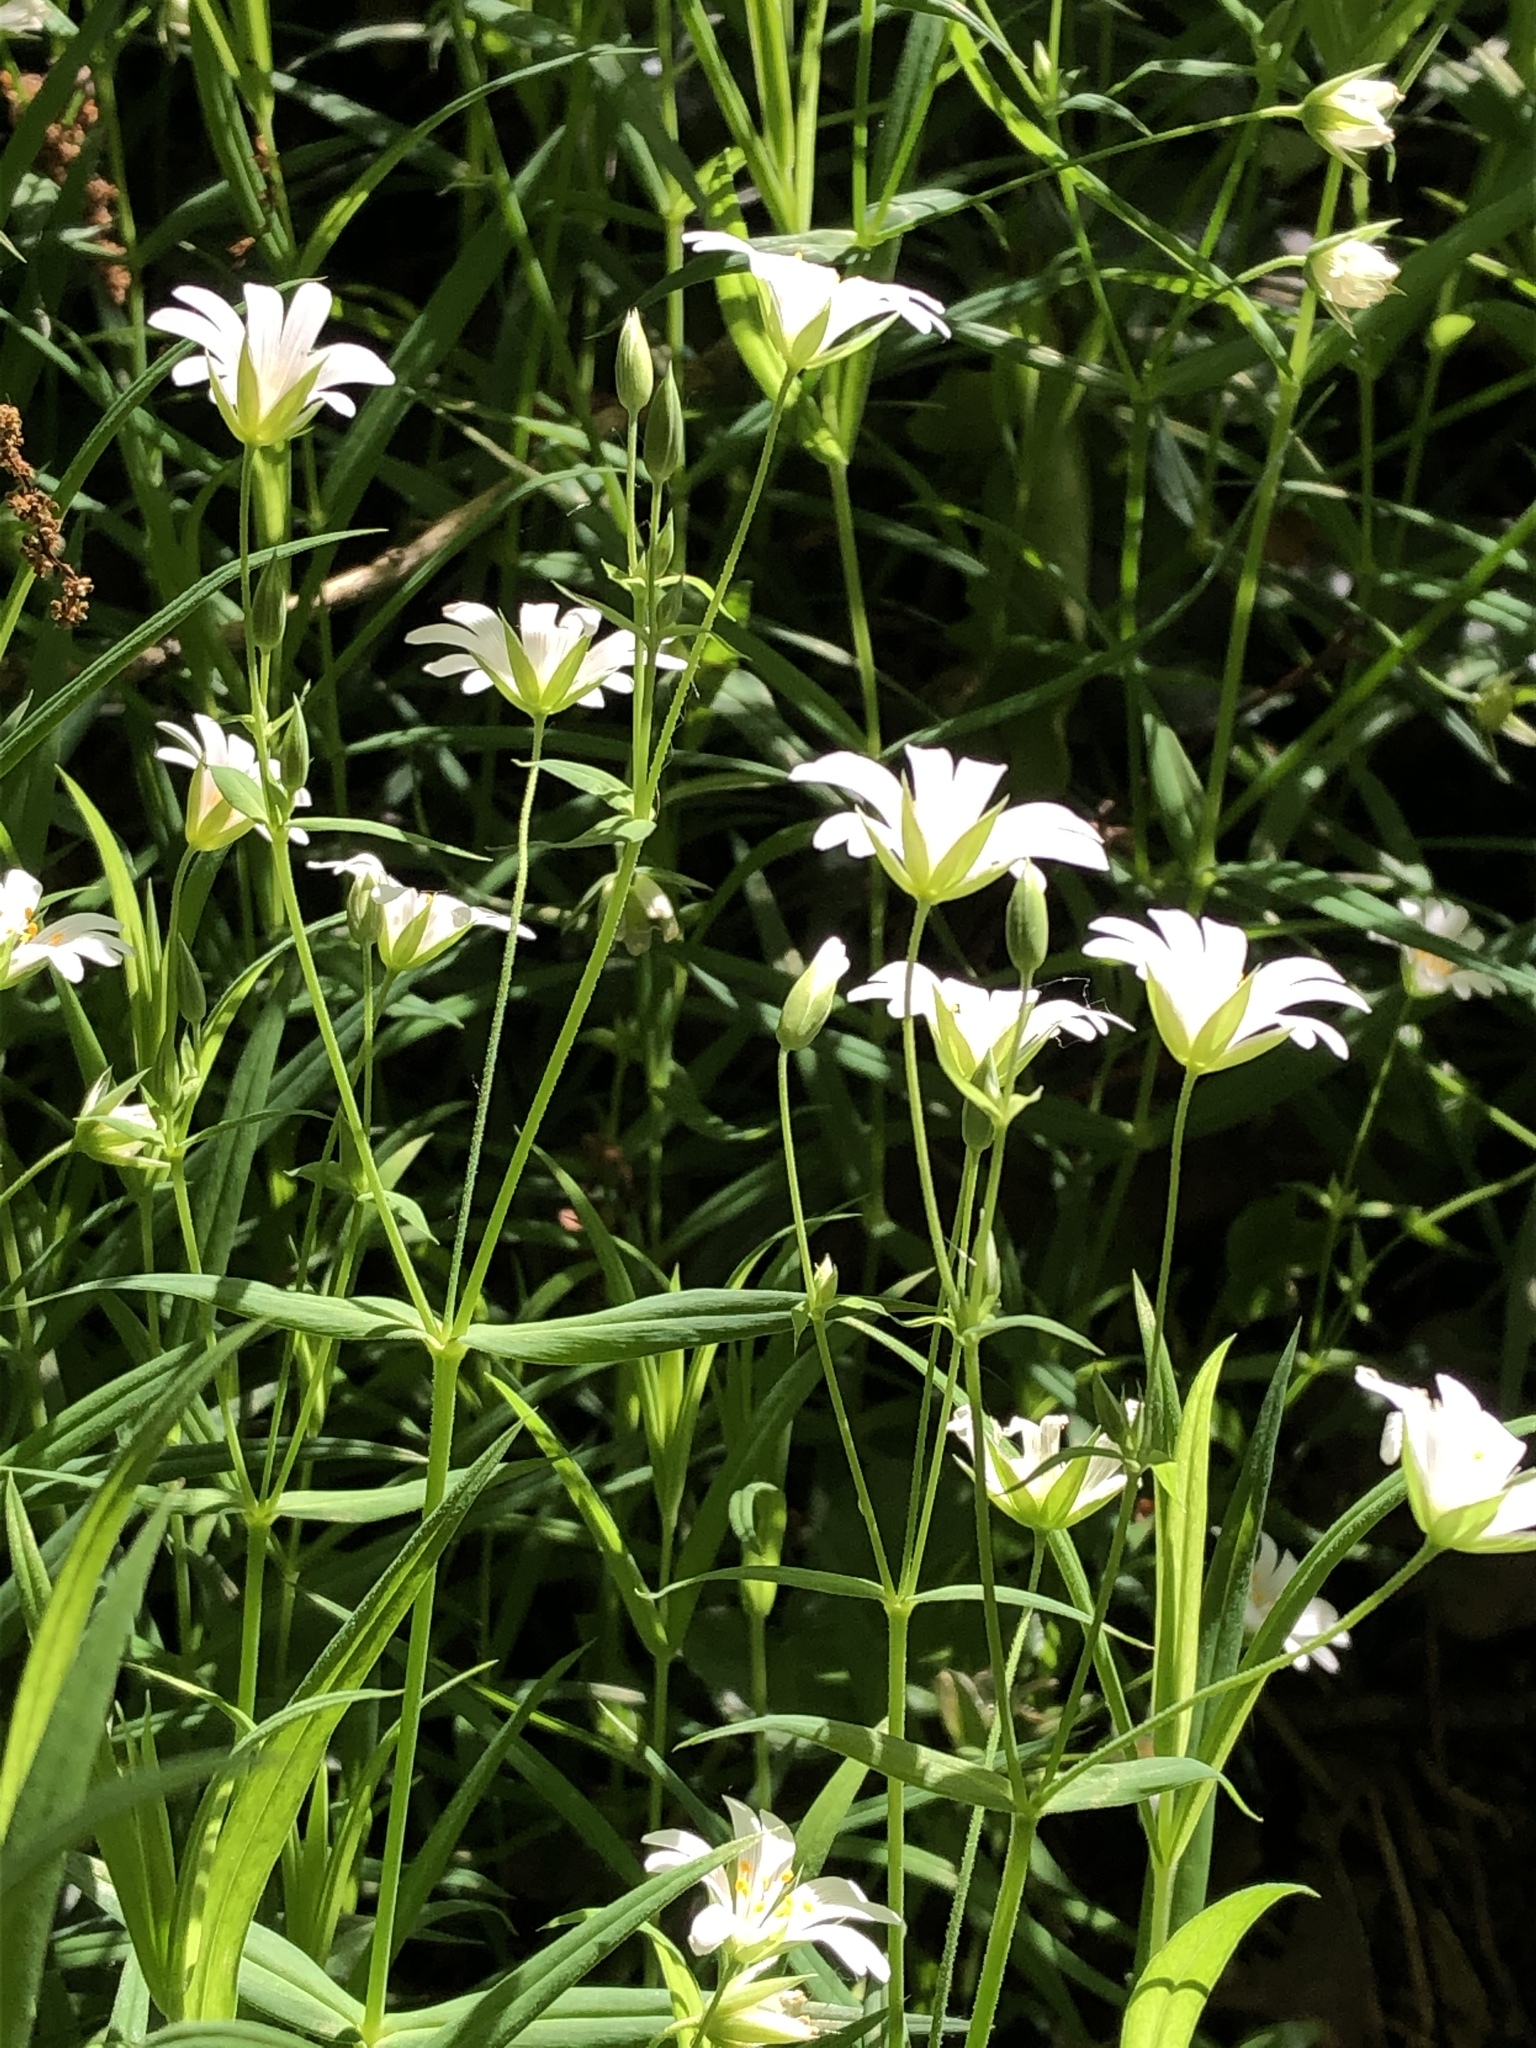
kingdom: Plantae
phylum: Tracheophyta
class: Magnoliopsida
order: Caryophyllales
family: Caryophyllaceae
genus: Rabelera
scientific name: Rabelera holostea
